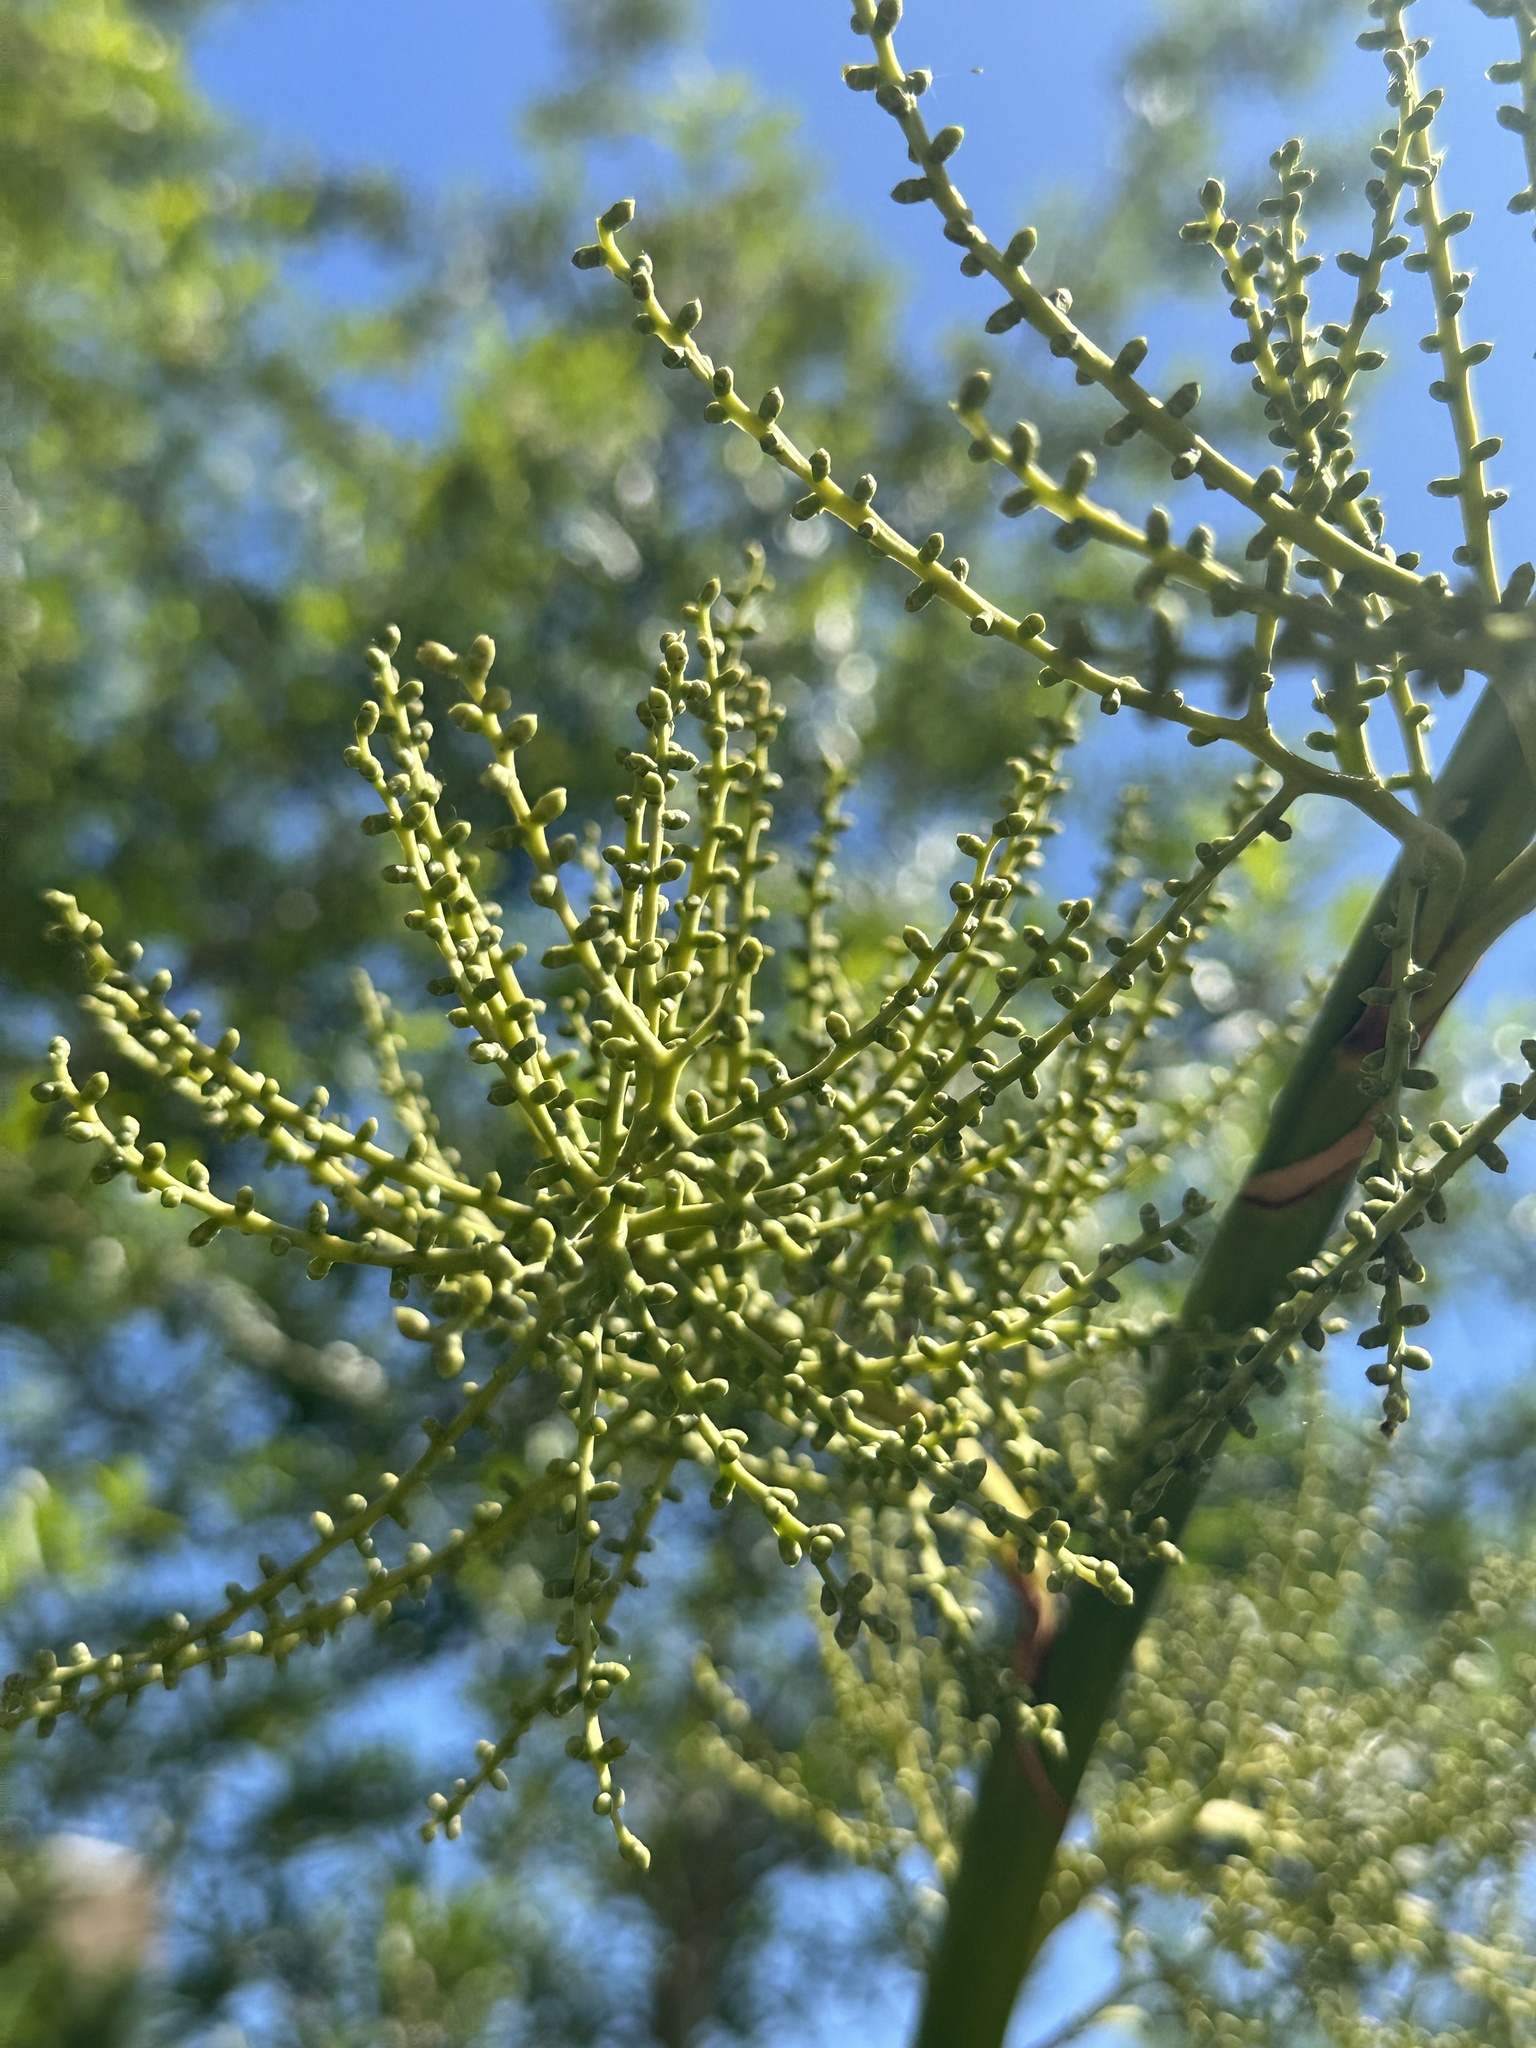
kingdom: Plantae
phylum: Tracheophyta
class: Liliopsida
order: Arecales
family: Arecaceae
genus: Sabal
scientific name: Sabal minor
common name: Dwarf palmetto
